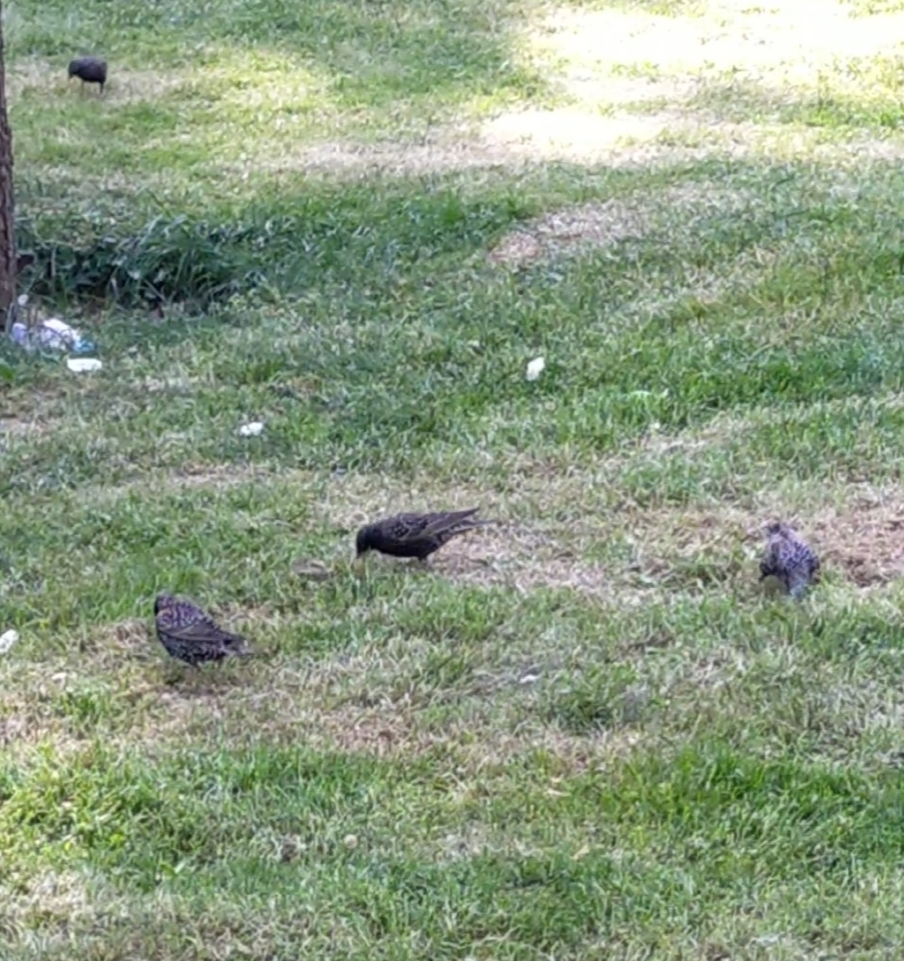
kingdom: Animalia
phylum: Chordata
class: Aves
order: Passeriformes
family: Sturnidae
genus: Sturnus
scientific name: Sturnus vulgaris
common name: Common starling
